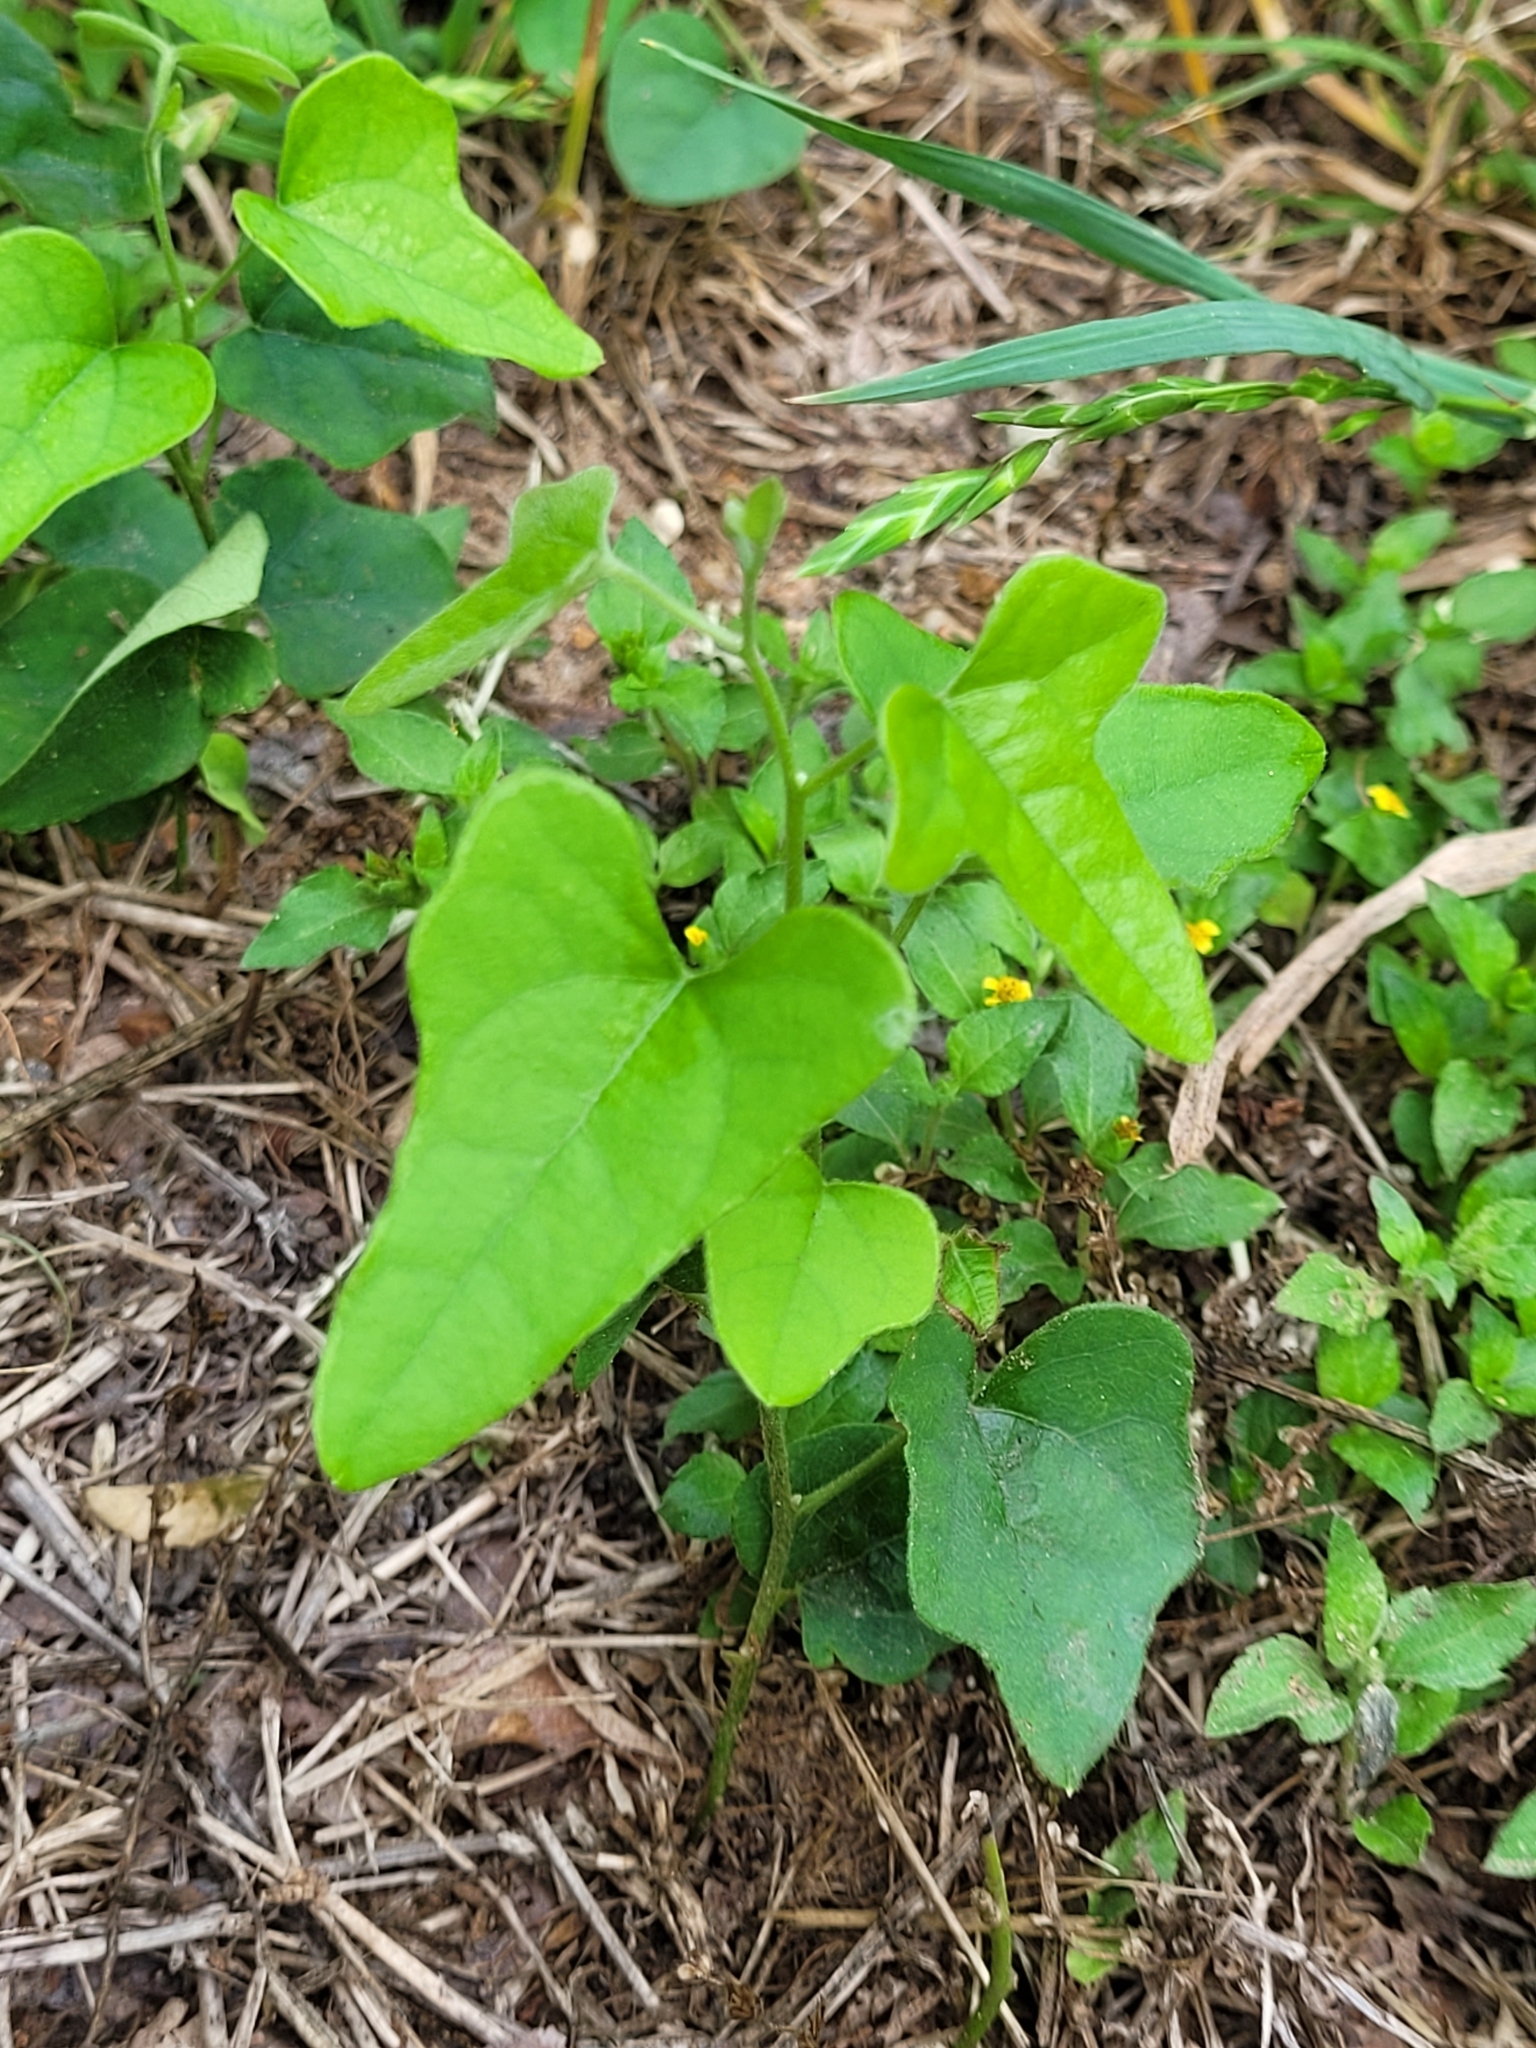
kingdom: Plantae
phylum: Tracheophyta
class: Magnoliopsida
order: Ranunculales
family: Menispermaceae
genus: Cocculus
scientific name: Cocculus carolinus
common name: Carolina moonseed
